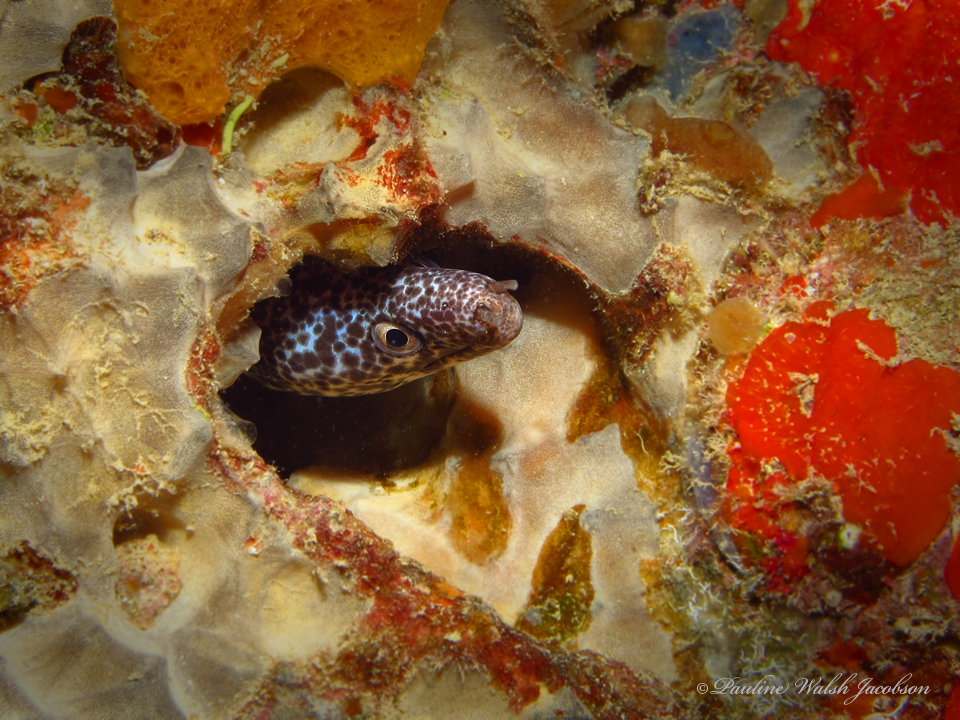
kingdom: Animalia
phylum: Chordata
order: Anguilliformes
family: Muraenidae
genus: Gymnothorax
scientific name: Gymnothorax moringa
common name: Spotted moray
